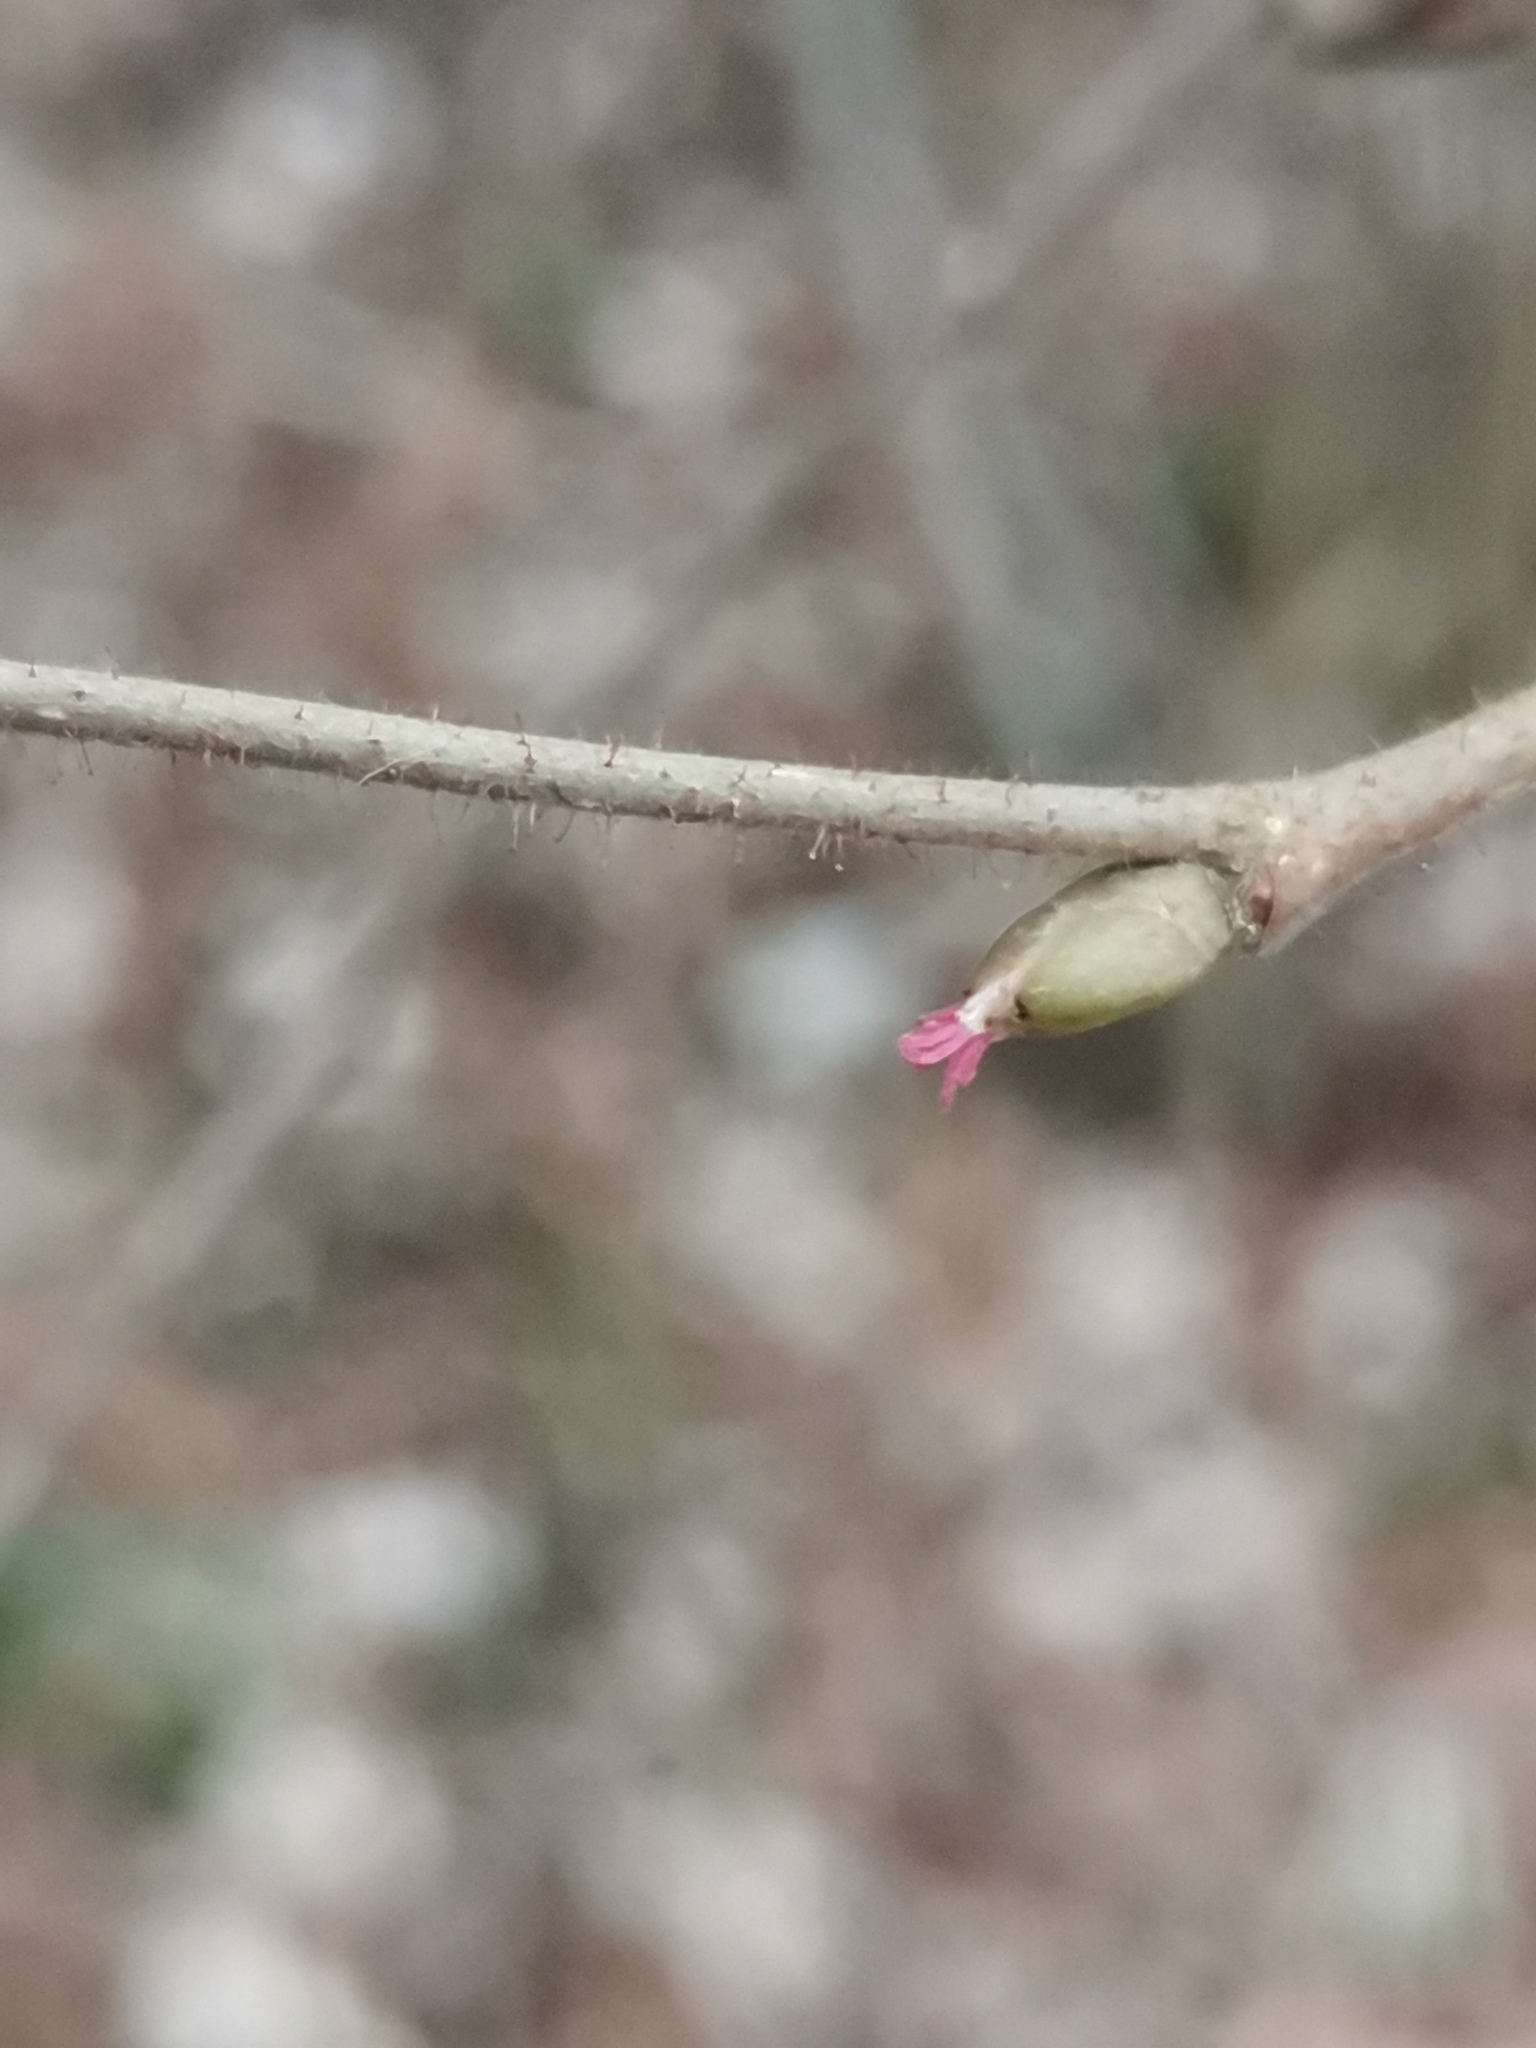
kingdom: Plantae
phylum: Tracheophyta
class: Magnoliopsida
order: Fagales
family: Betulaceae
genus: Corylus
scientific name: Corylus avellana
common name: European hazel
